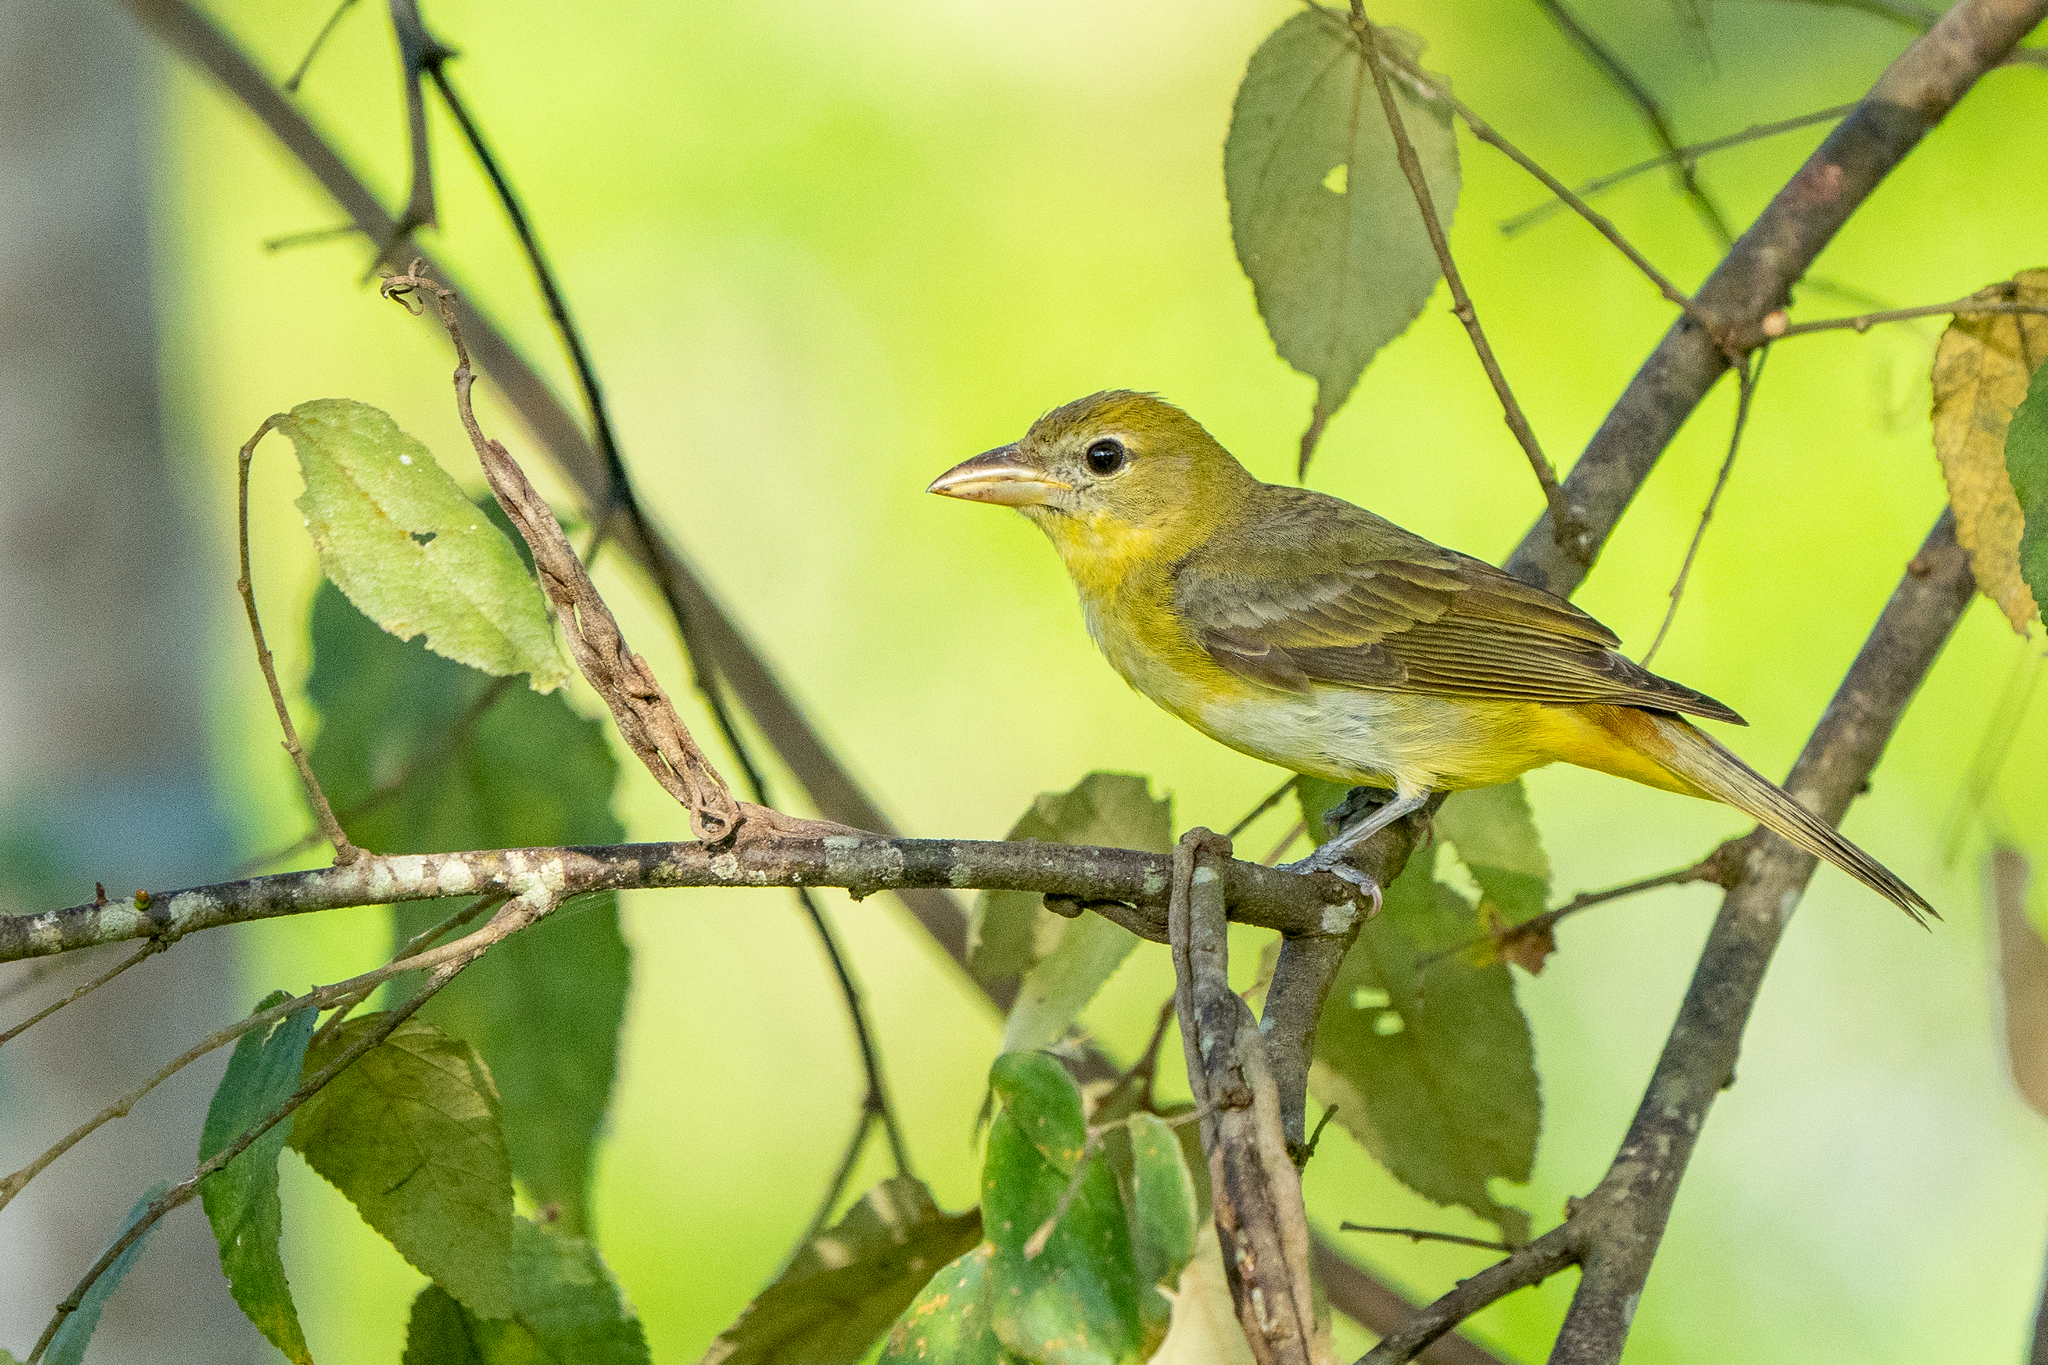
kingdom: Animalia
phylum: Chordata
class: Aves
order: Passeriformes
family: Cardinalidae
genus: Piranga
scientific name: Piranga rubra
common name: Summer tanager
